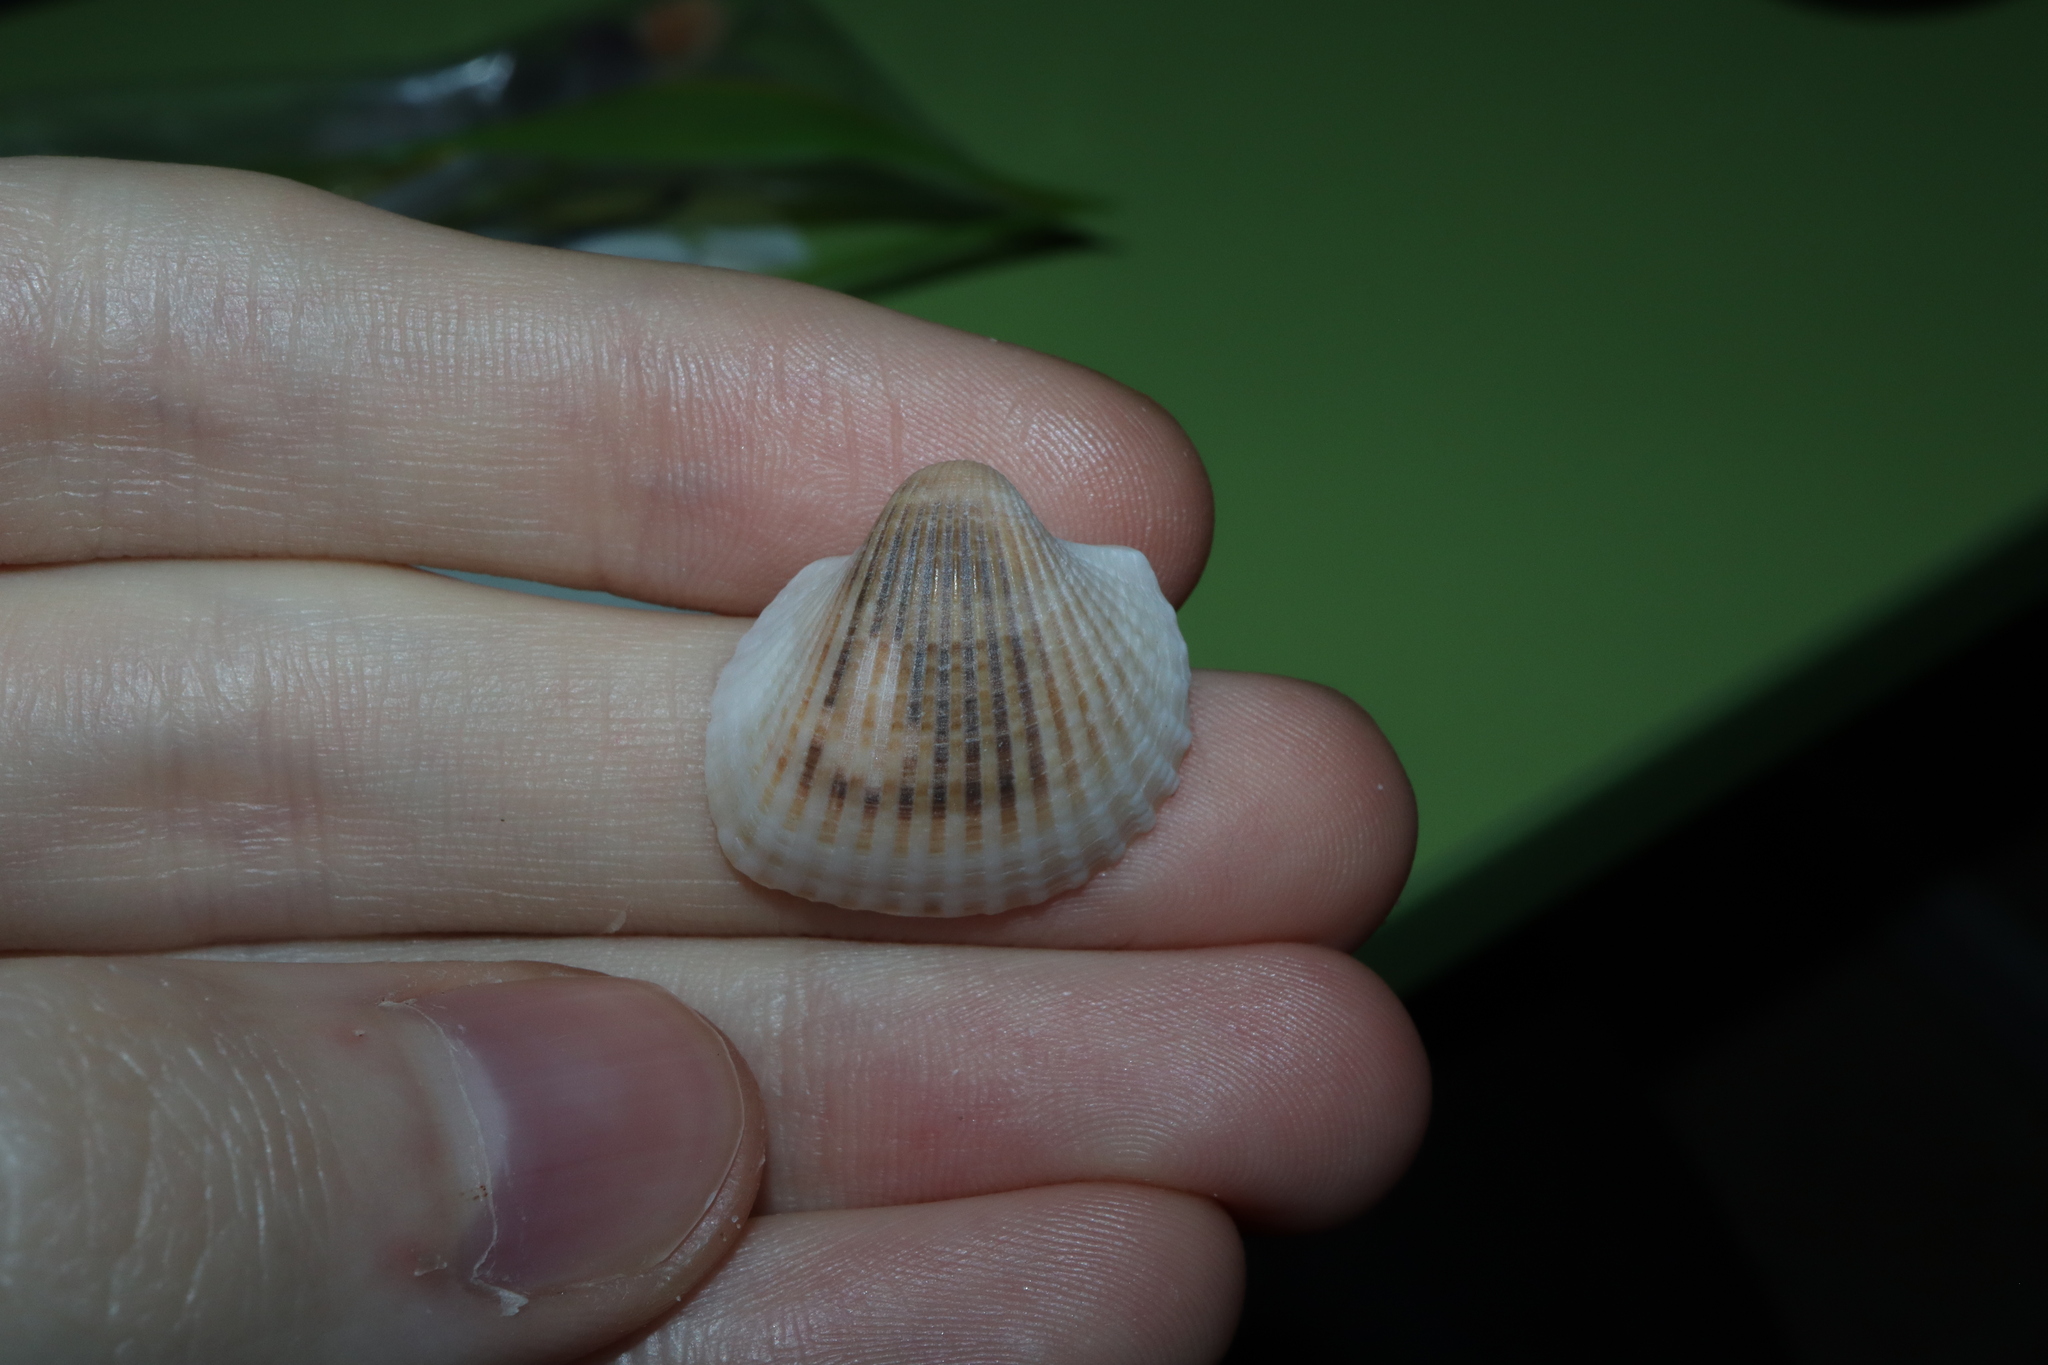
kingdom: Animalia
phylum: Mollusca
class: Bivalvia
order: Arcida
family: Arcidae
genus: Anadara
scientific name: Anadara pilula
